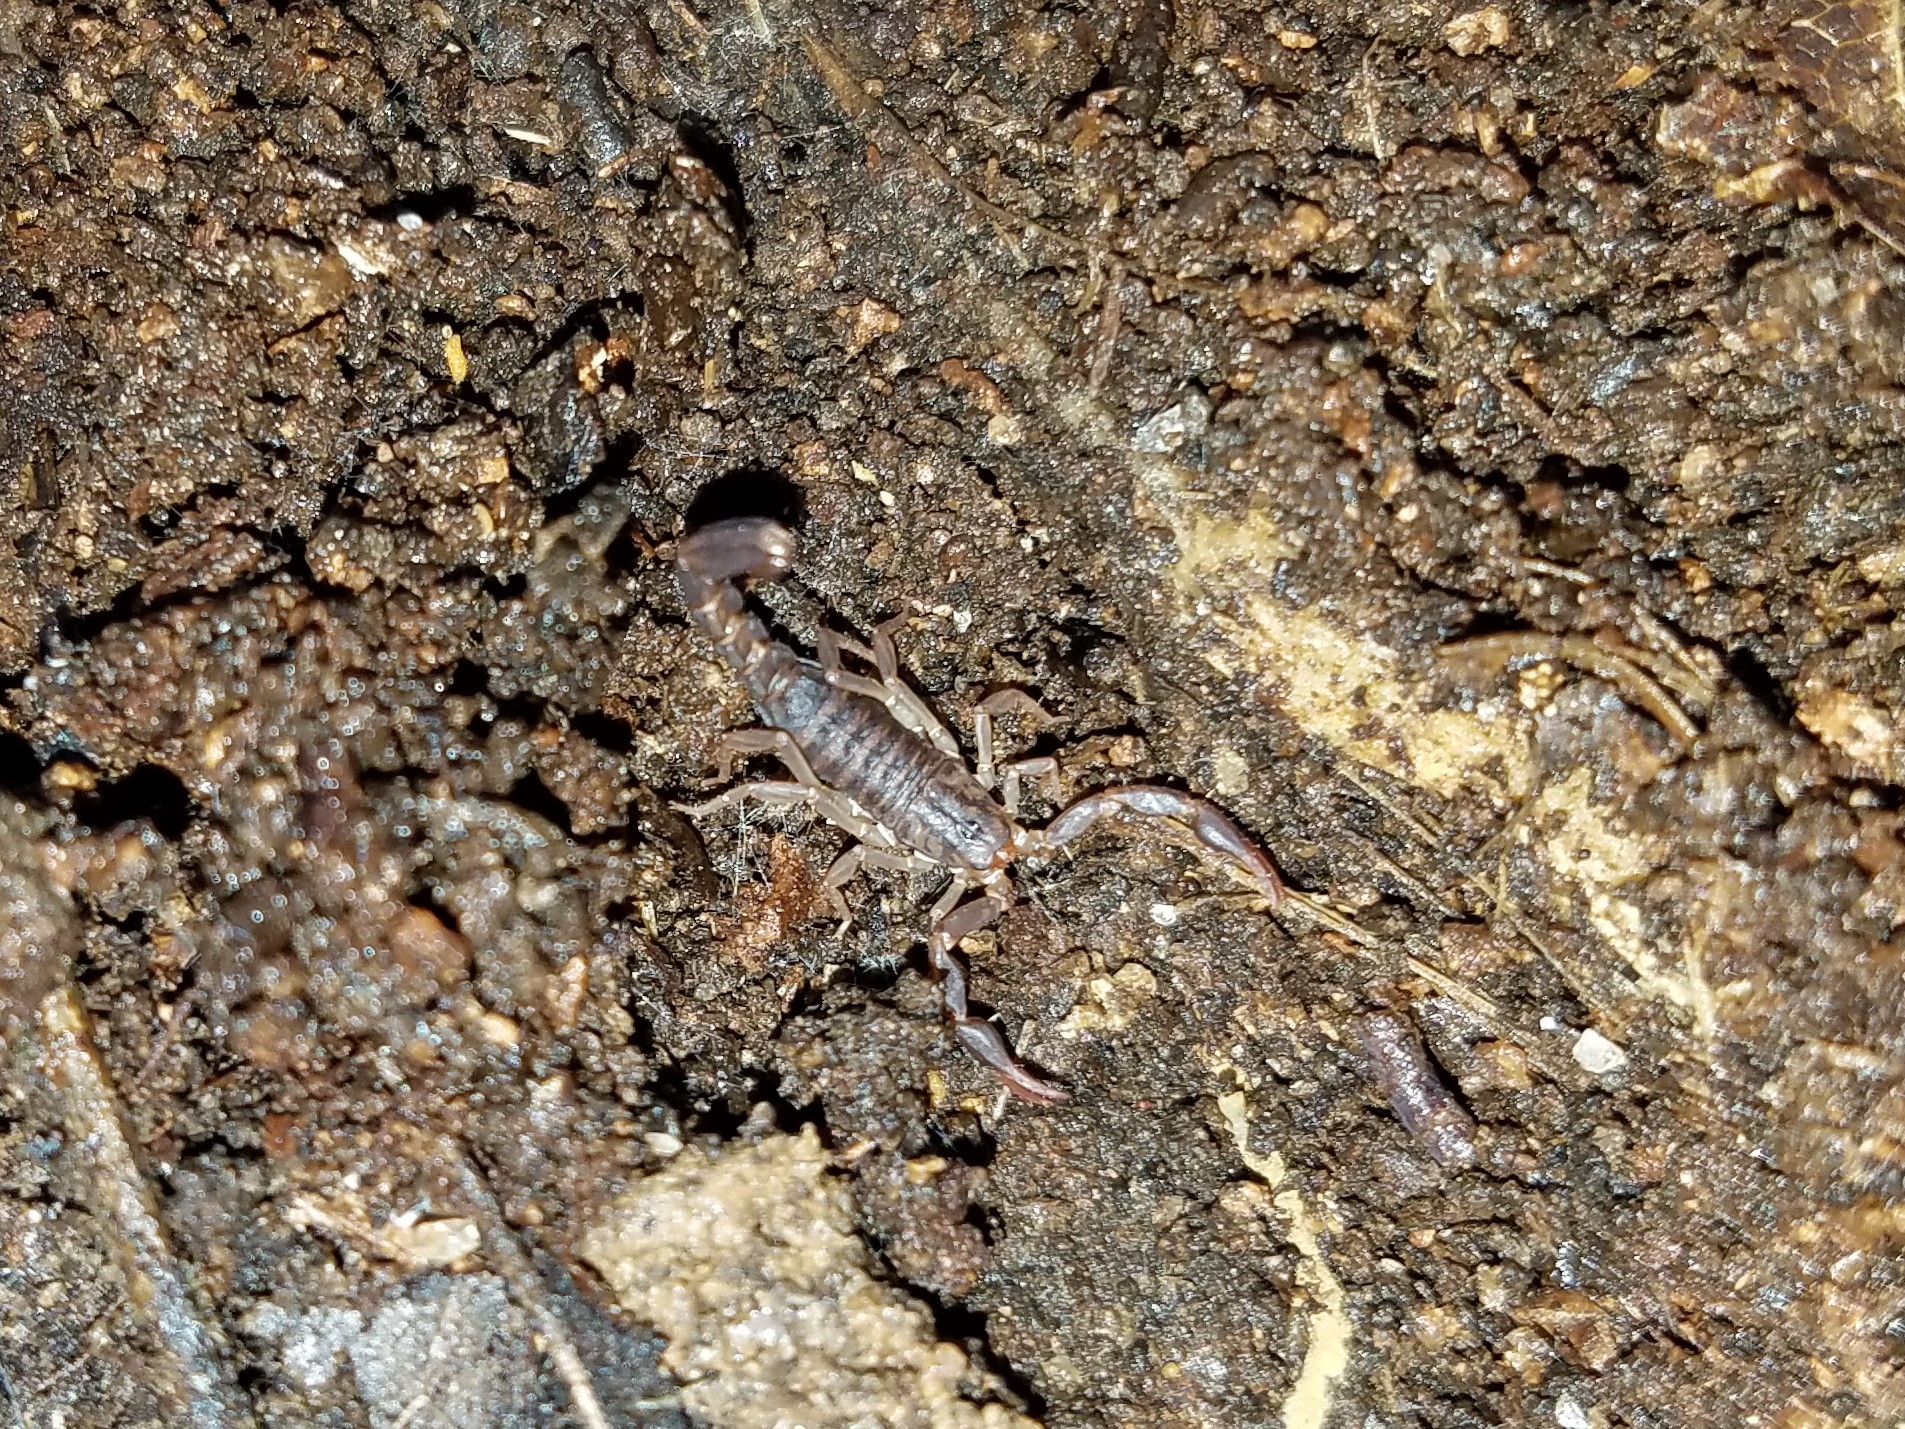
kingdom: Animalia
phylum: Arthropoda
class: Arachnida
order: Scorpiones
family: Vaejovidae
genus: Vaejovis
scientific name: Vaejovis carolinianus
